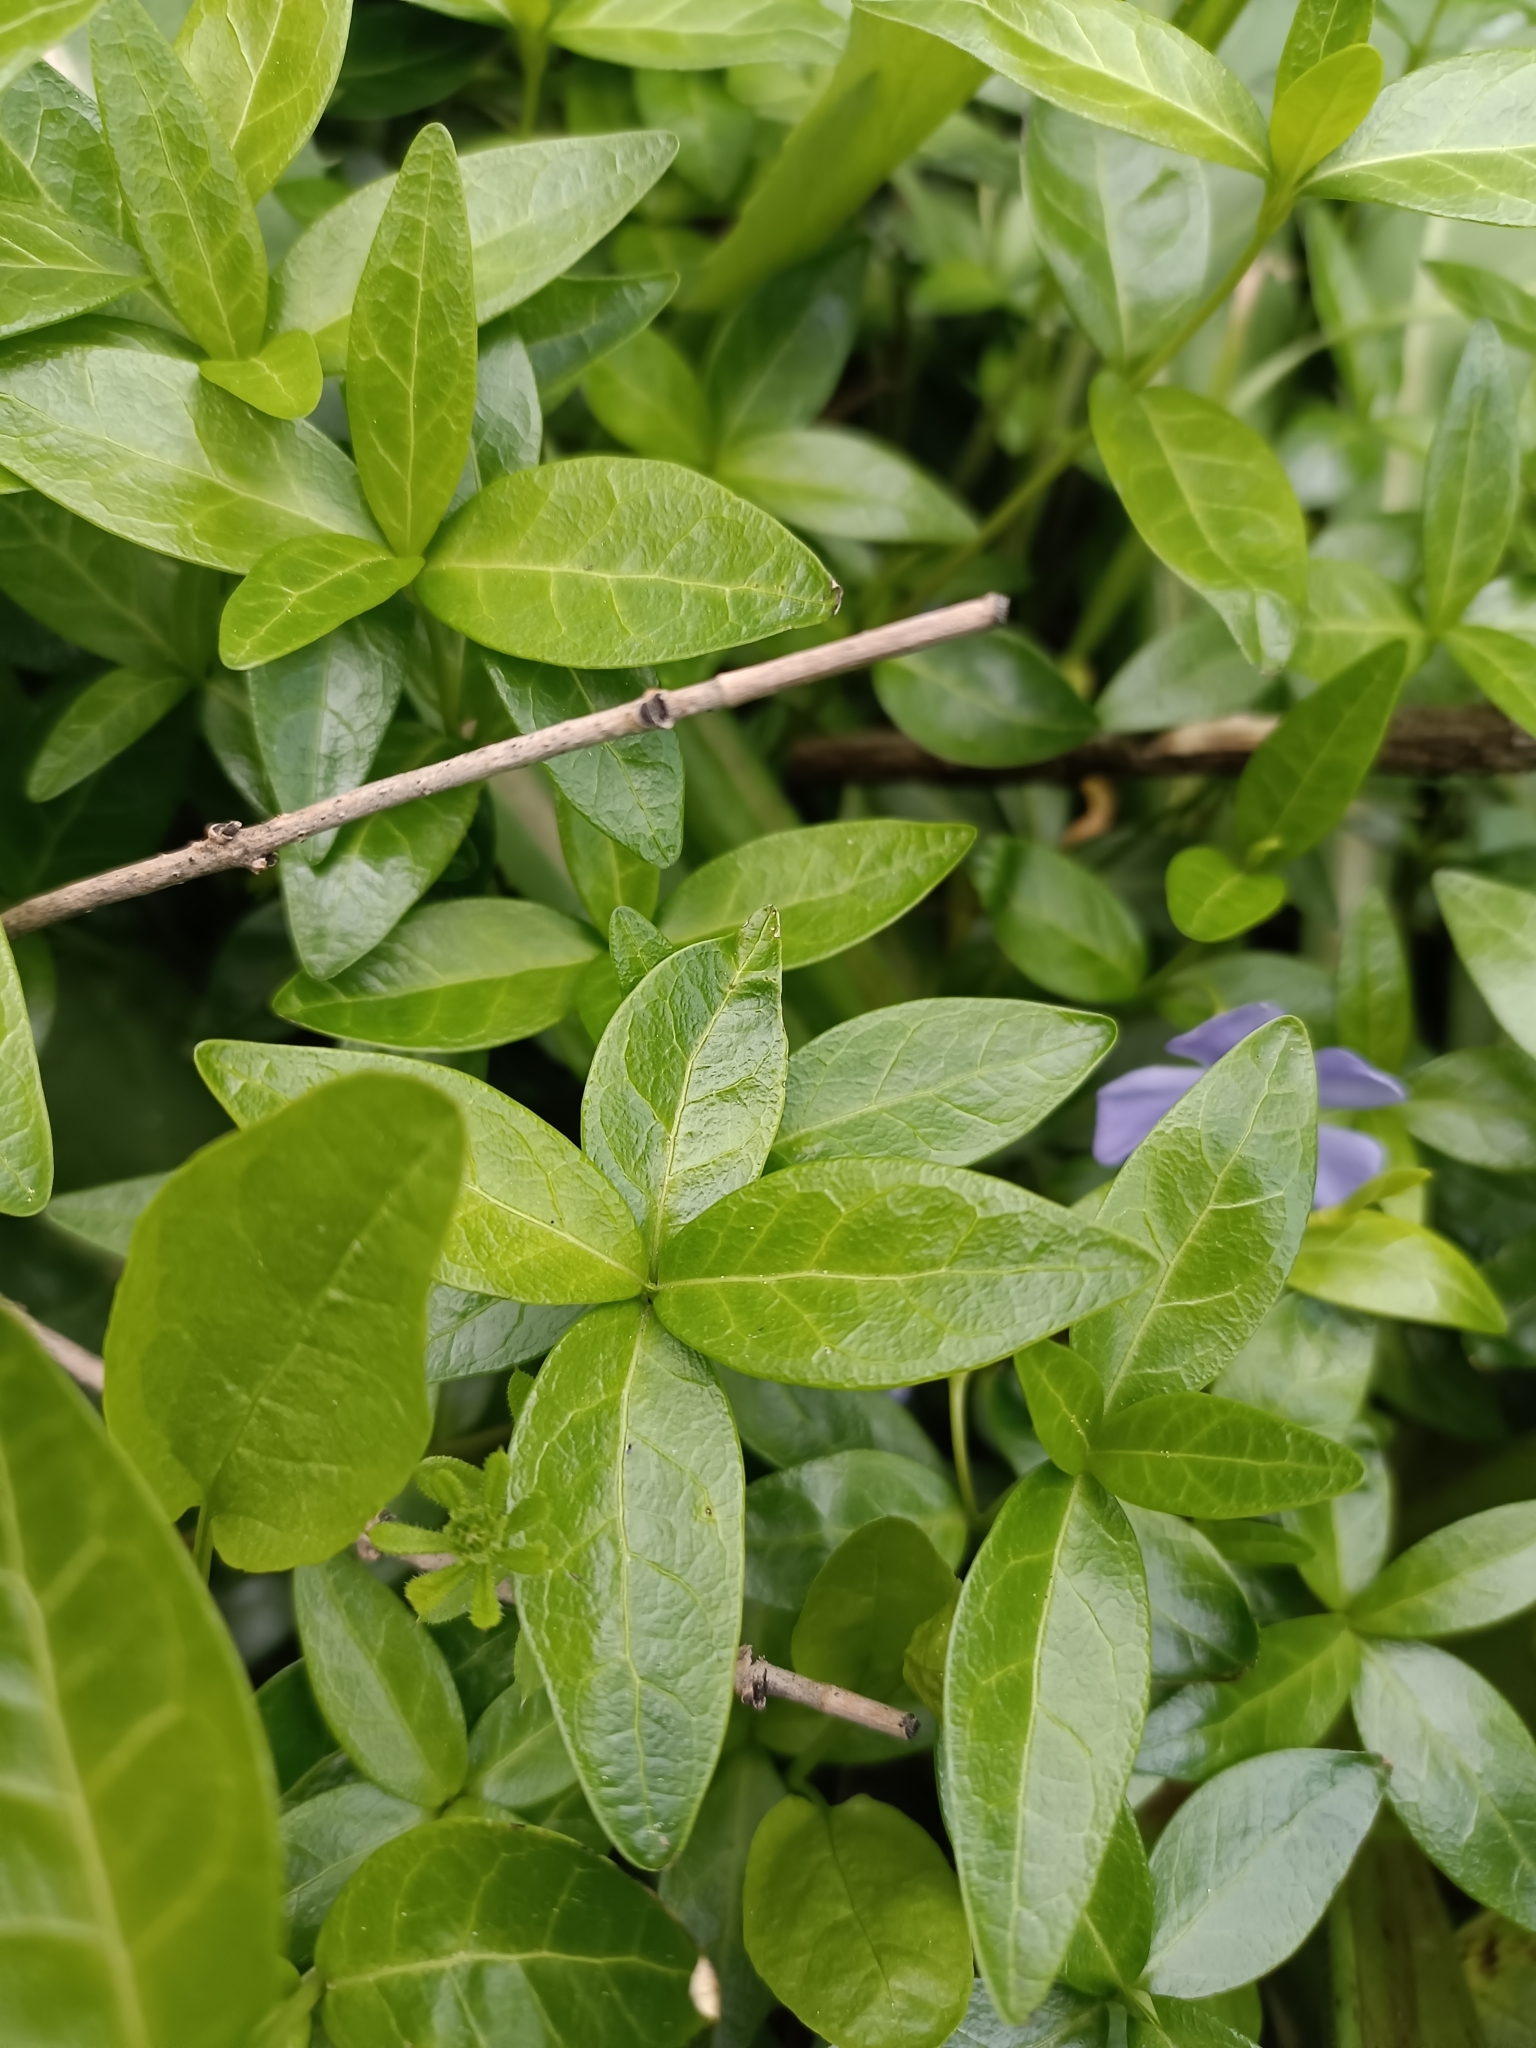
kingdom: Plantae
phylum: Tracheophyta
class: Magnoliopsida
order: Gentianales
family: Apocynaceae
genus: Vinca
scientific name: Vinca minor
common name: Lesser periwinkle
